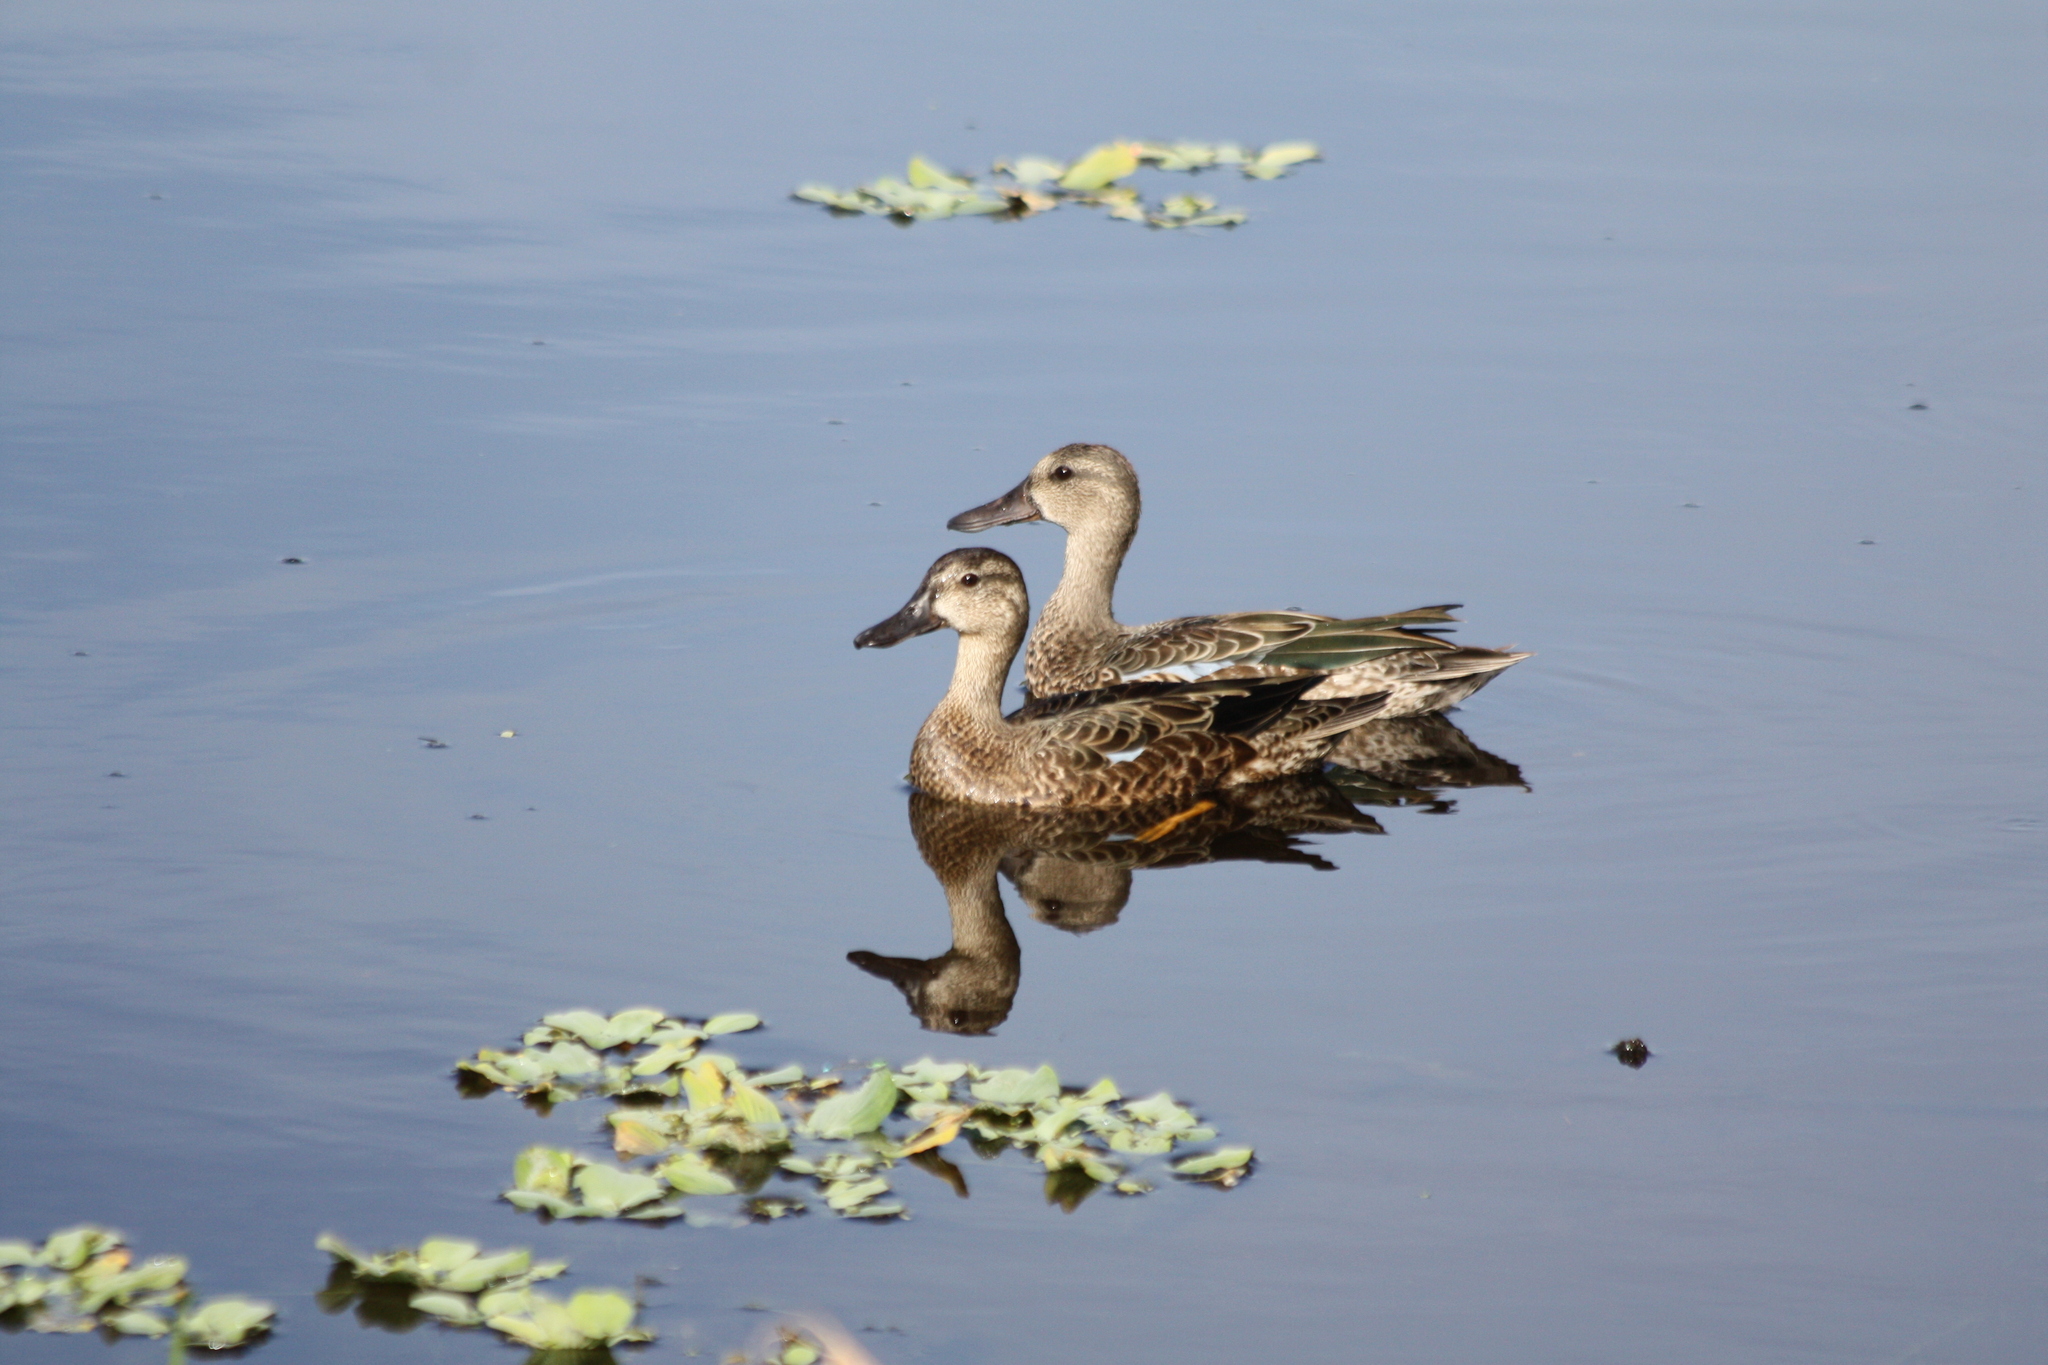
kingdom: Animalia
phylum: Chordata
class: Aves
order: Anseriformes
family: Anatidae
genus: Spatula
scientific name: Spatula discors
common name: Blue-winged teal
